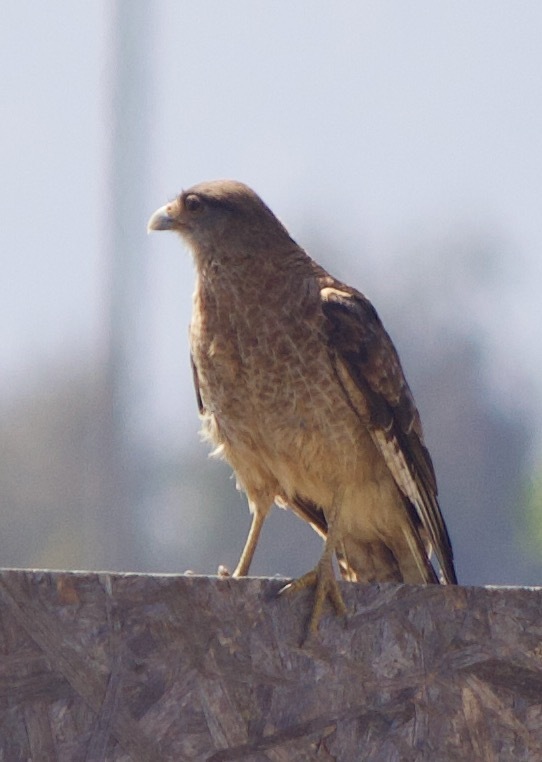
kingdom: Animalia
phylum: Chordata
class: Aves
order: Falconiformes
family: Falconidae
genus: Daptrius
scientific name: Daptrius
